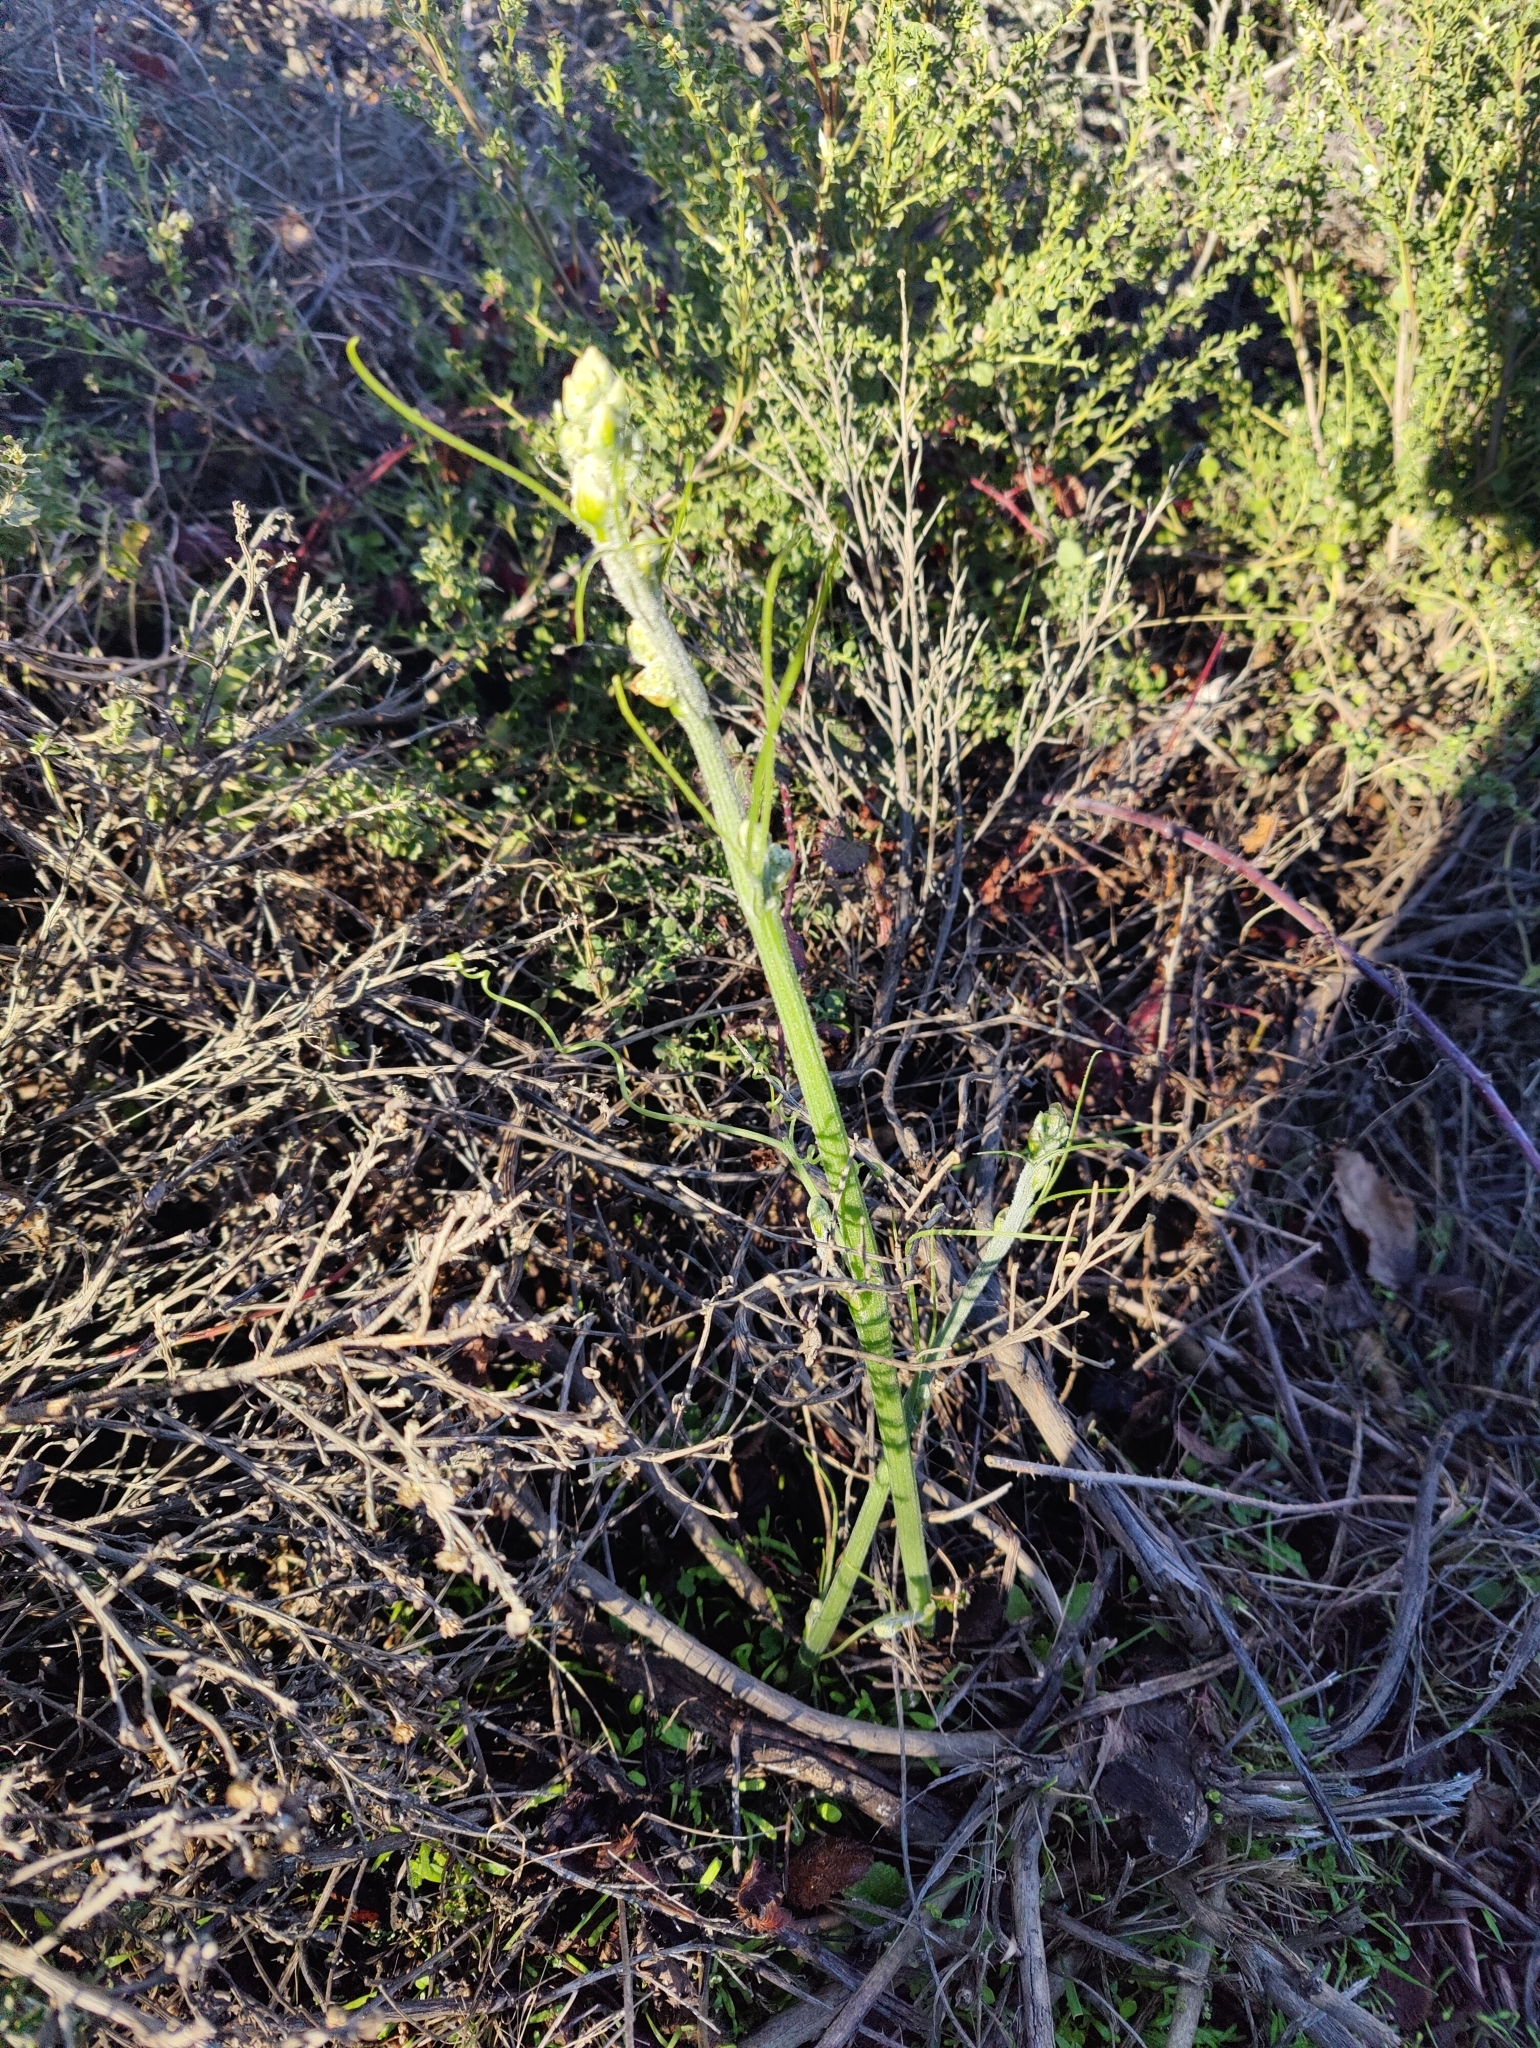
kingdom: Plantae
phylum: Tracheophyta
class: Magnoliopsida
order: Cucurbitales
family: Cucurbitaceae
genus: Marah
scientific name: Marah fabacea
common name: California manroot
